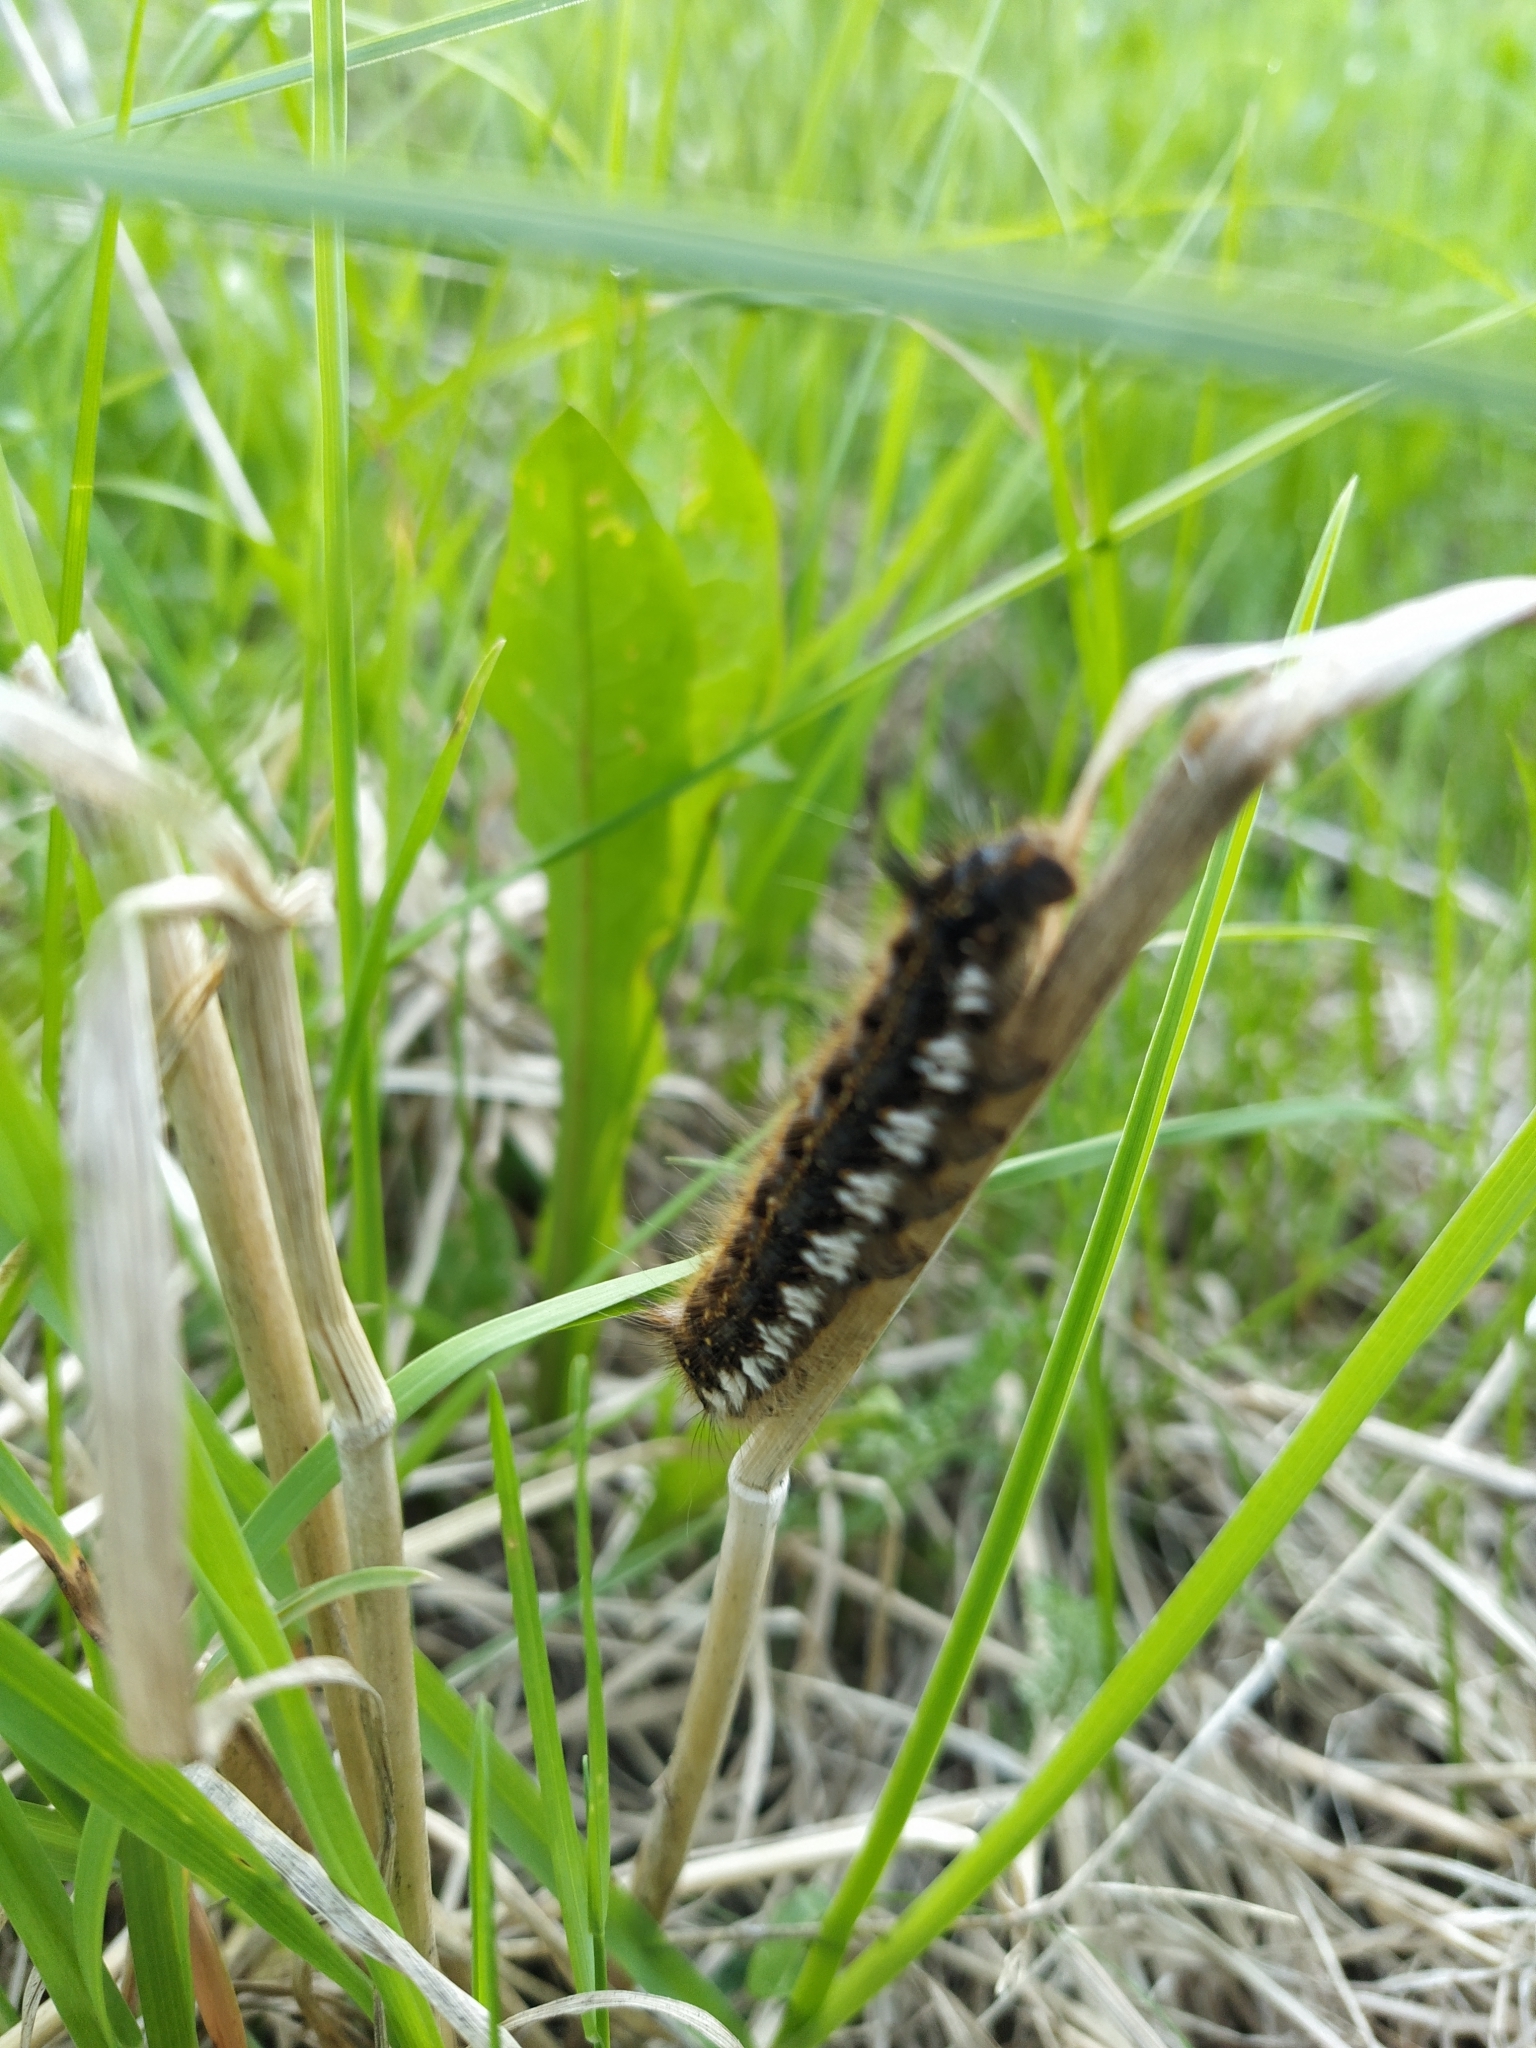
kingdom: Animalia
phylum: Arthropoda
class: Insecta
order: Lepidoptera
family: Lasiocampidae
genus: Euthrix
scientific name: Euthrix potatoria
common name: Drinker
